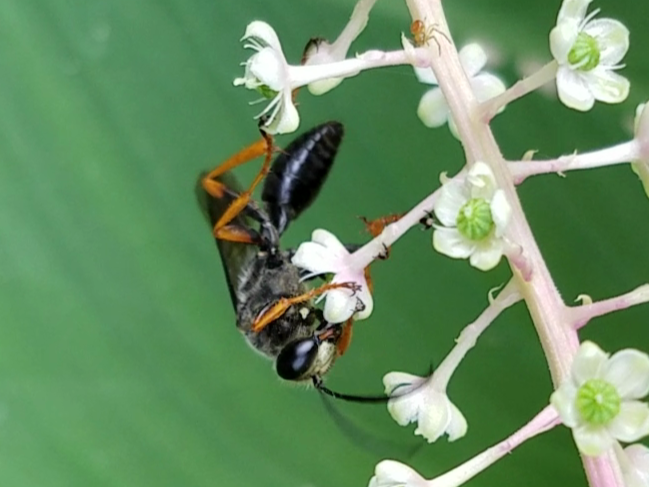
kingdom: Animalia
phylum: Arthropoda
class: Insecta
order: Hymenoptera
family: Sphecidae
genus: Sphex
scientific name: Sphex nudus
